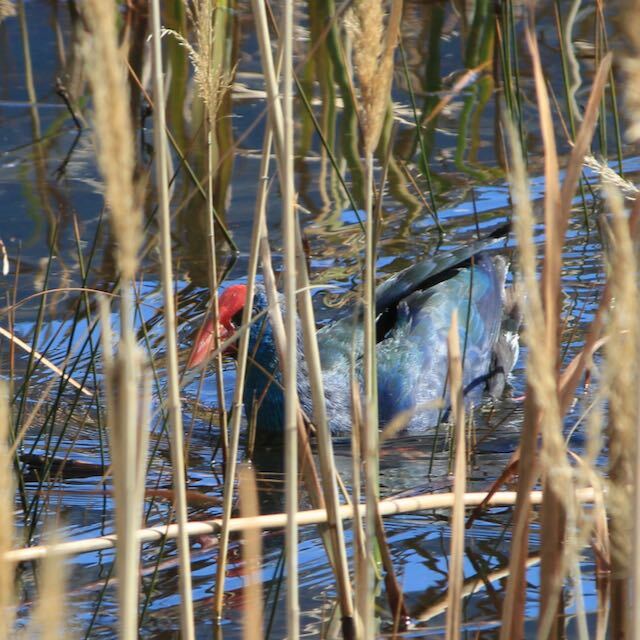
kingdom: Animalia
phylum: Chordata
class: Aves
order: Gruiformes
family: Rallidae
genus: Porphyrio
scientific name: Porphyrio porphyrio
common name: Purple swamphen
